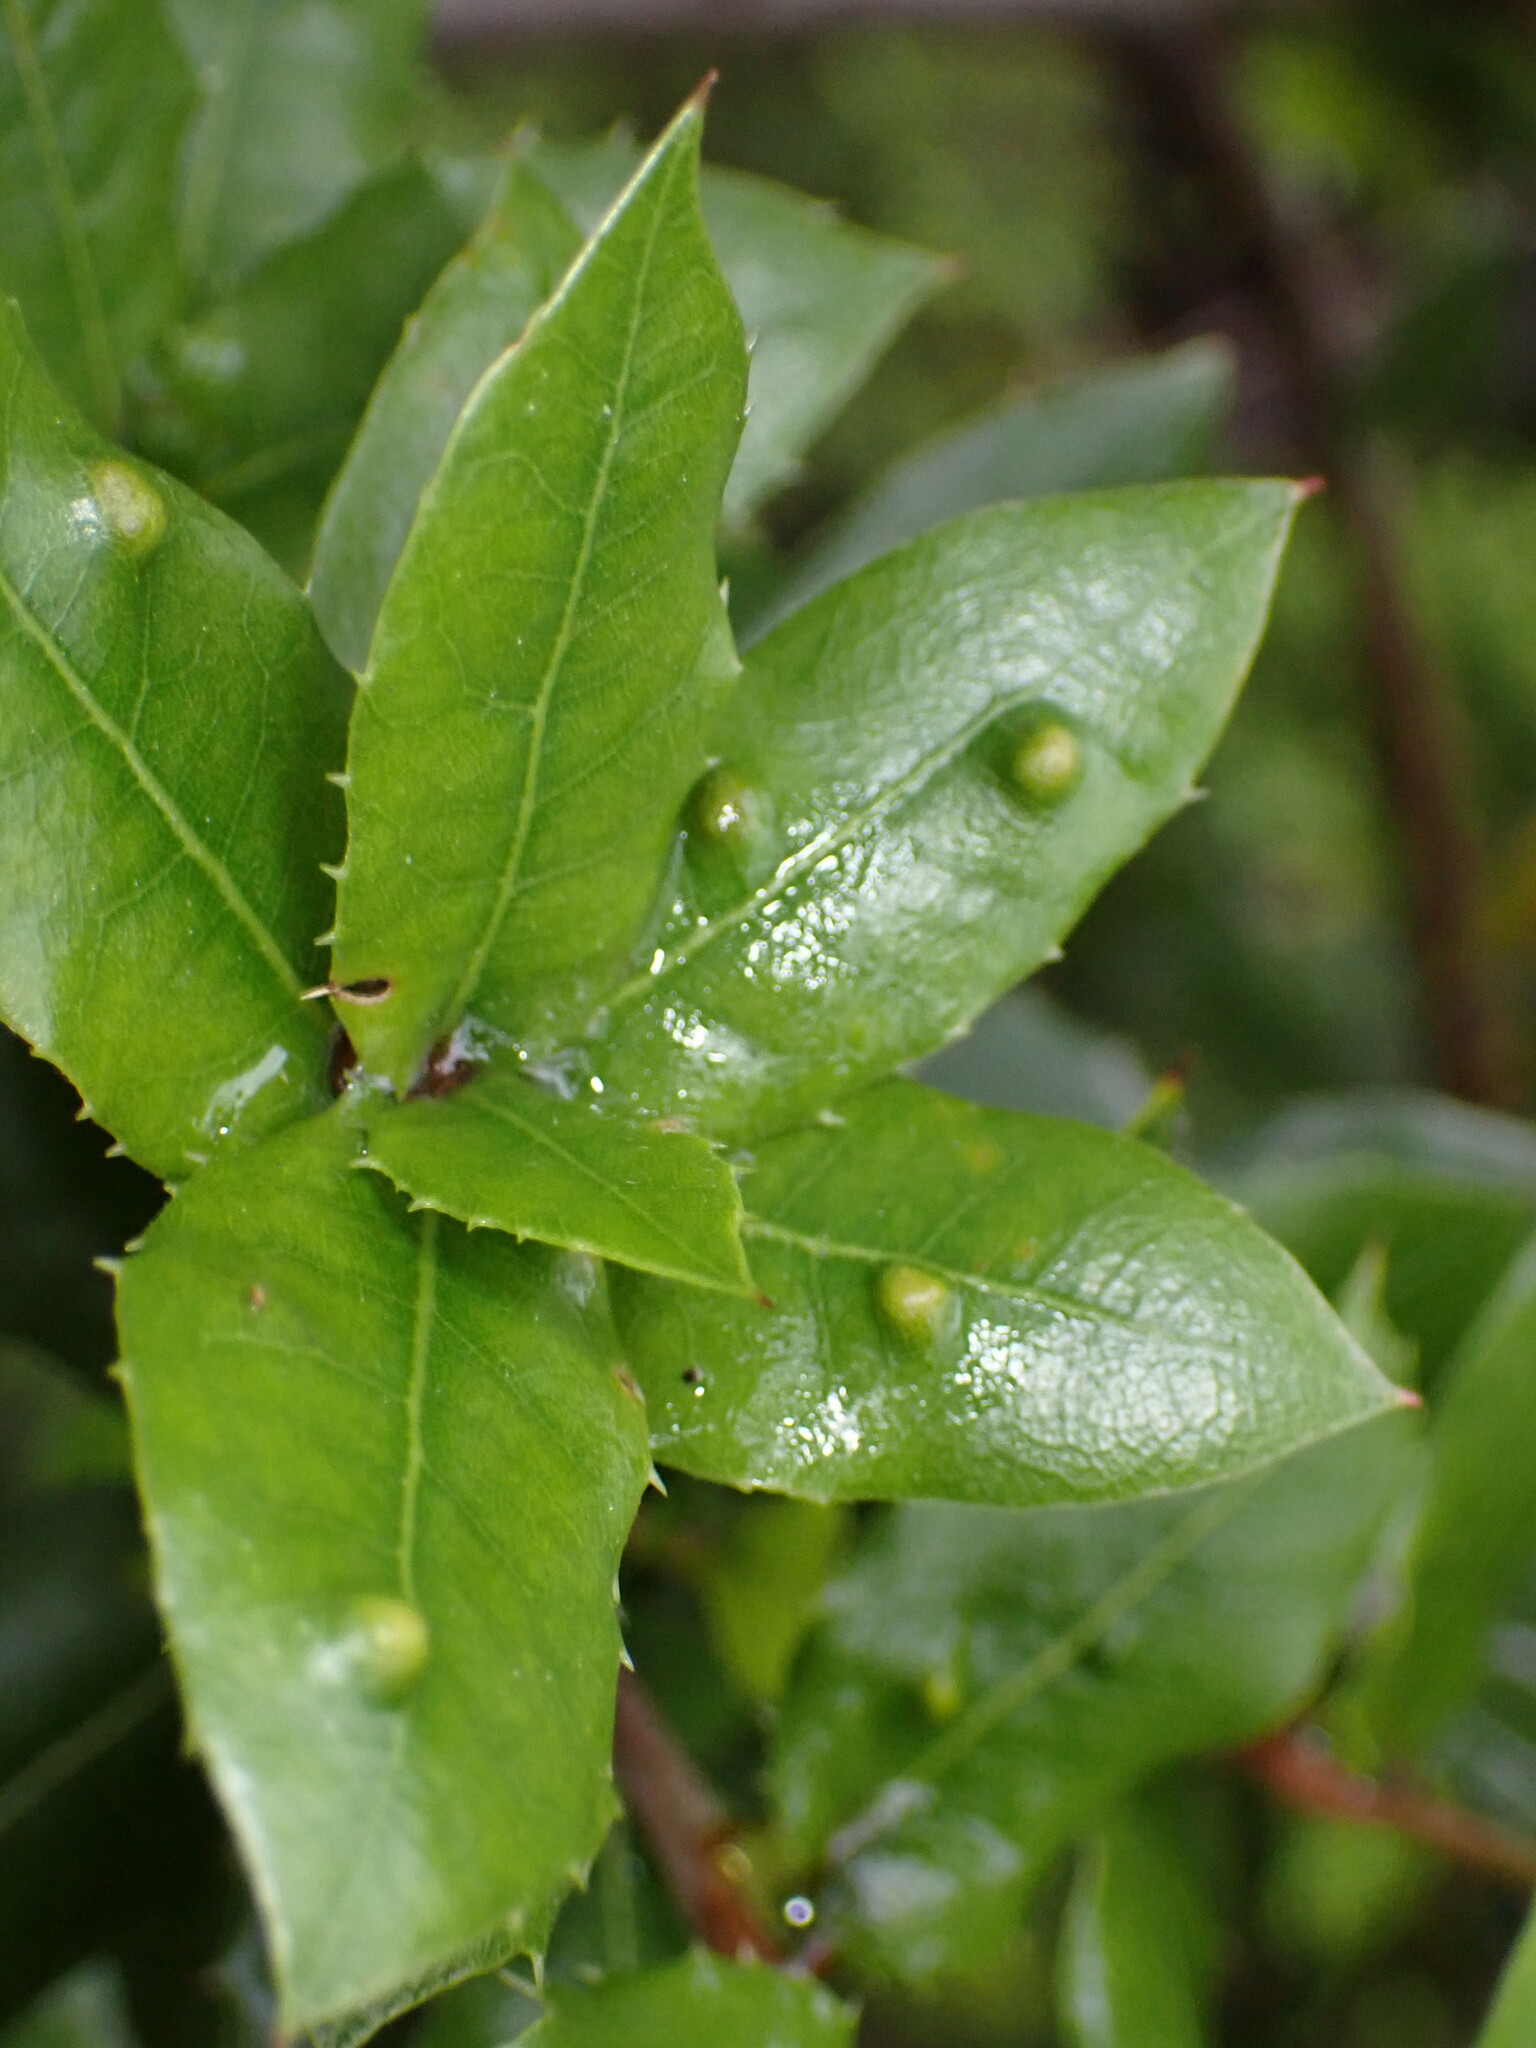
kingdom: Animalia
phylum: Arthropoda
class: Arachnida
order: Trombidiformes
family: Eriophyidae
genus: Aceria
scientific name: Aceria
